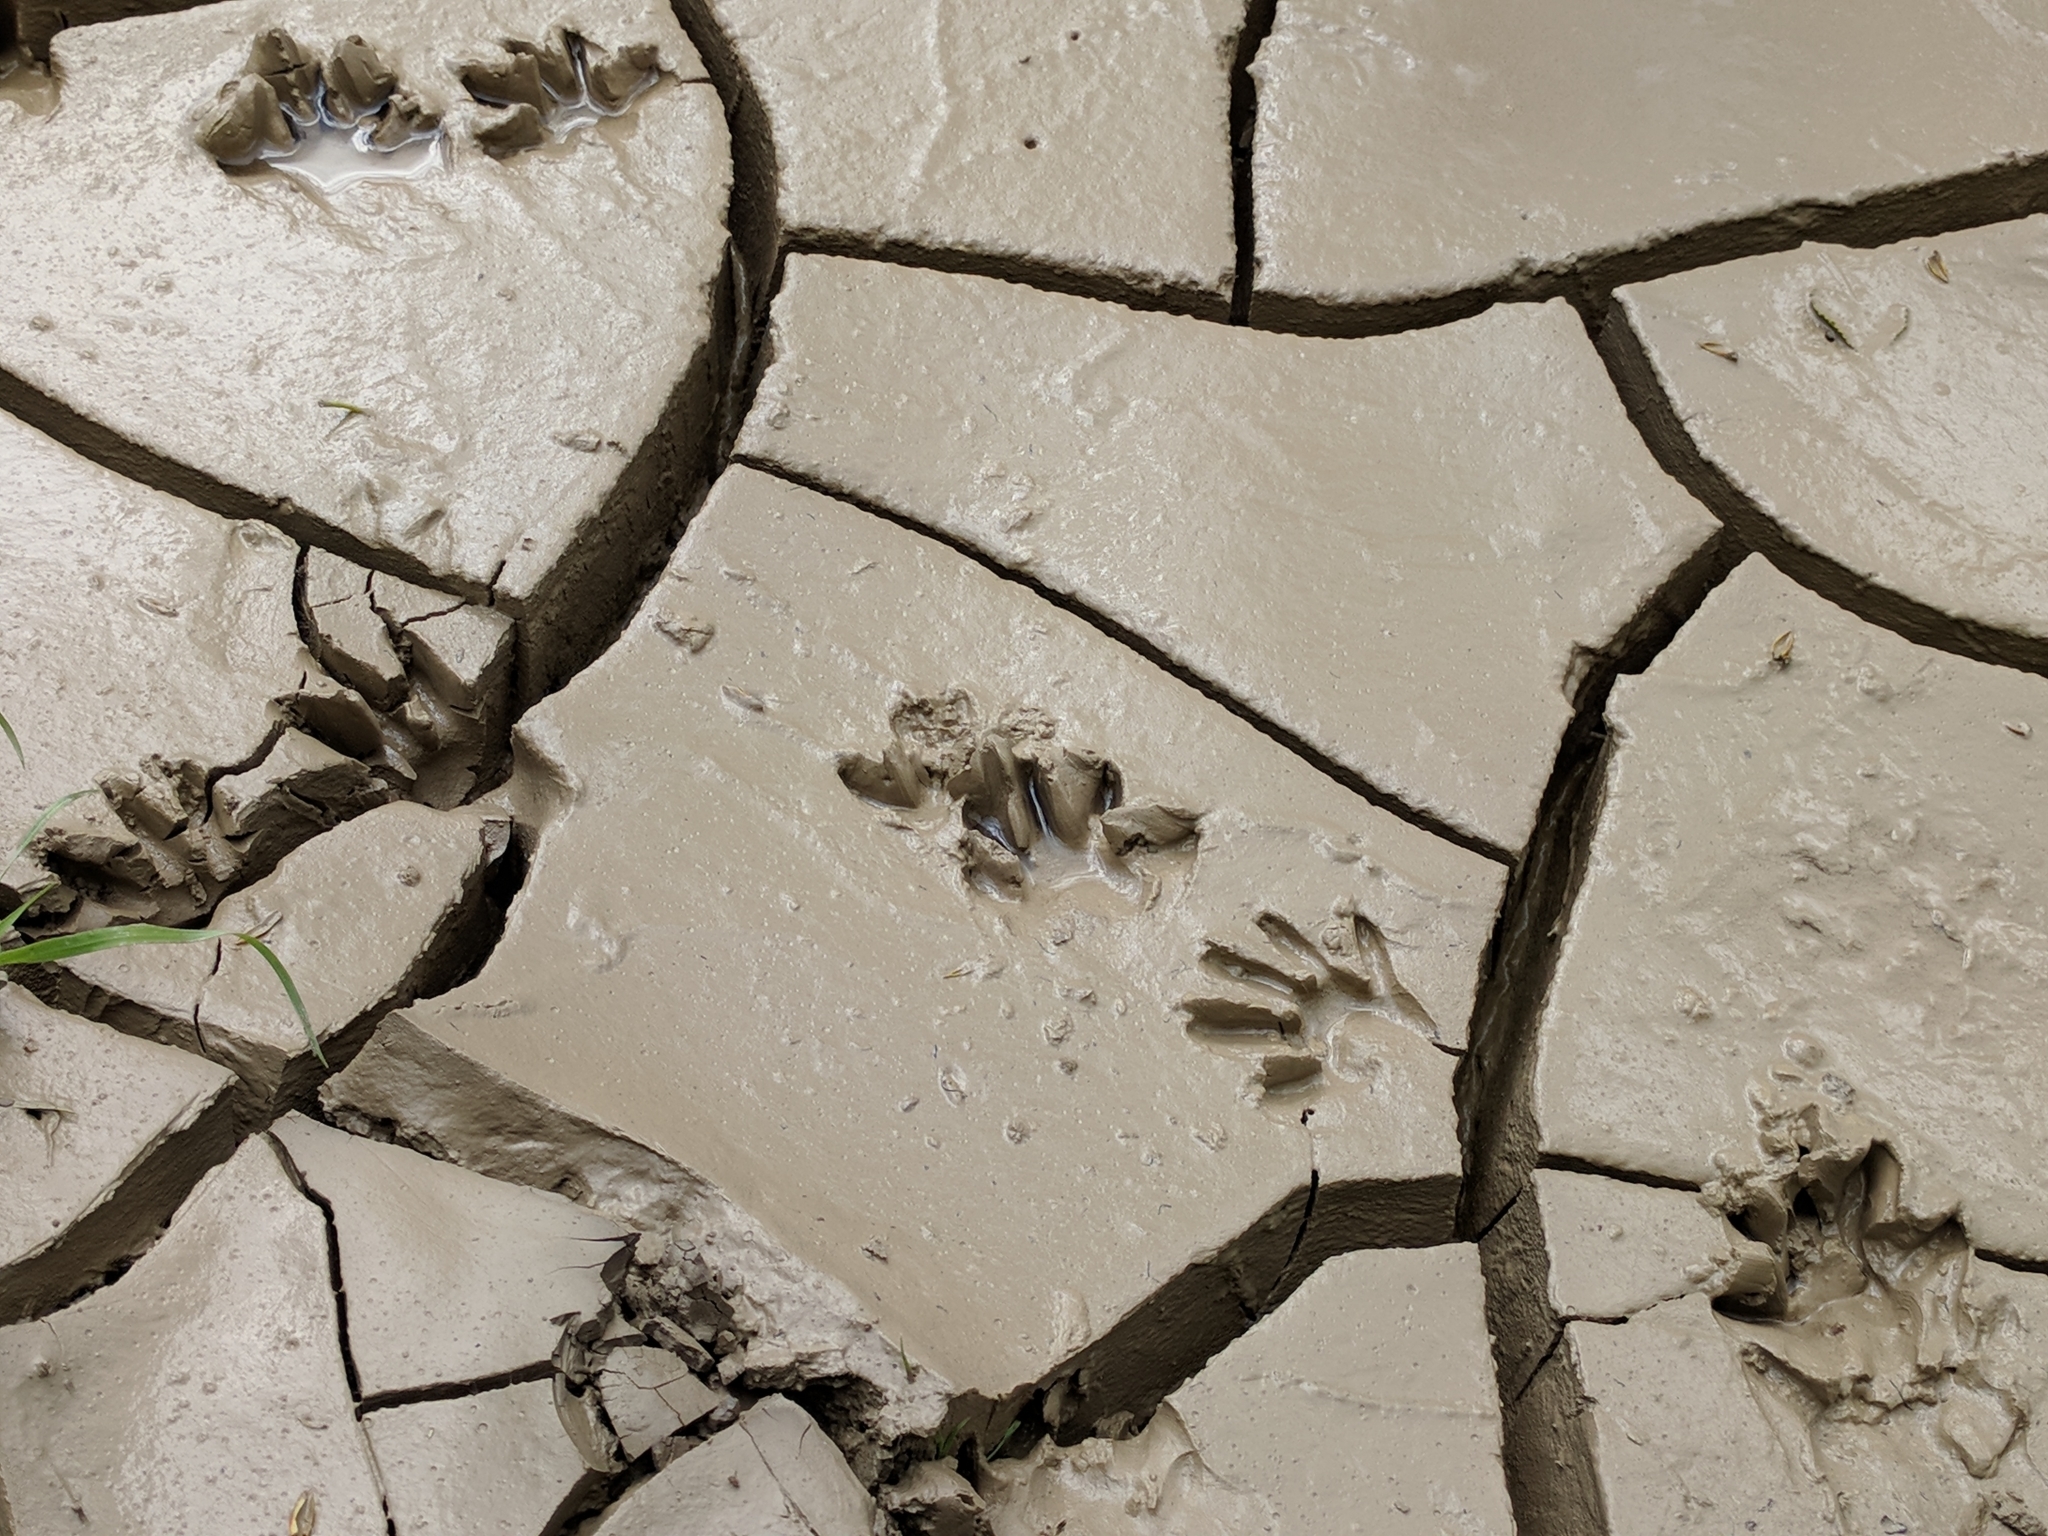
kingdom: Animalia
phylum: Chordata
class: Mammalia
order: Carnivora
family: Procyonidae
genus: Procyon
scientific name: Procyon lotor
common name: Raccoon
